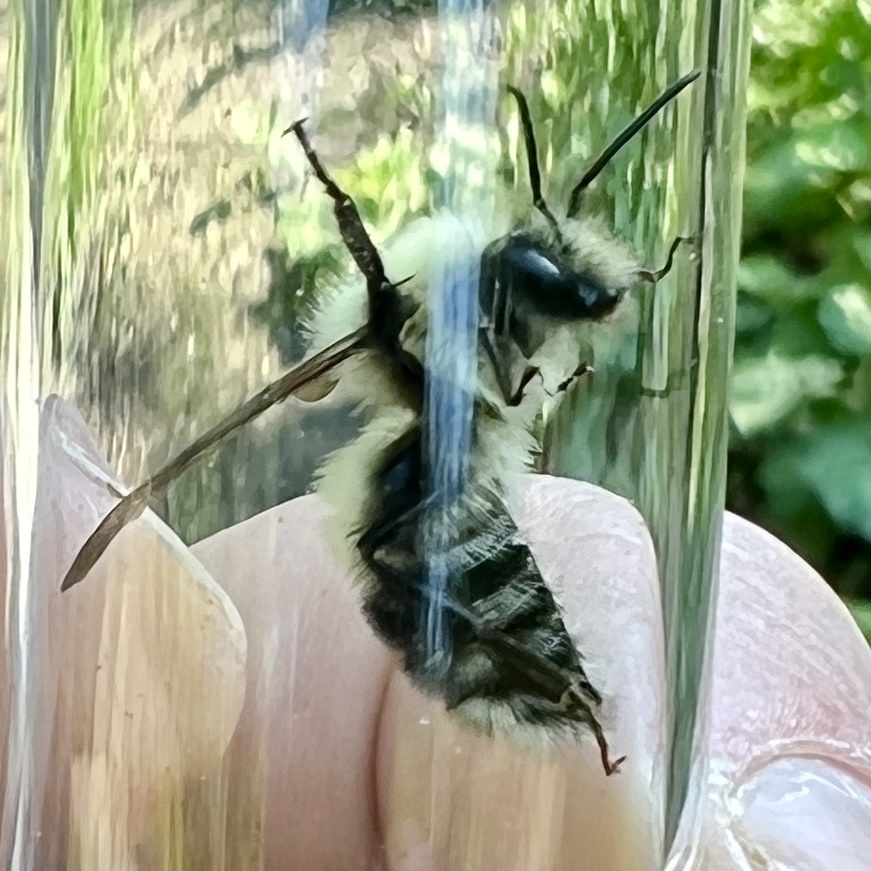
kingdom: Animalia
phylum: Arthropoda
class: Insecta
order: Hymenoptera
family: Apidae
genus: Pyrobombus
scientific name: Pyrobombus
